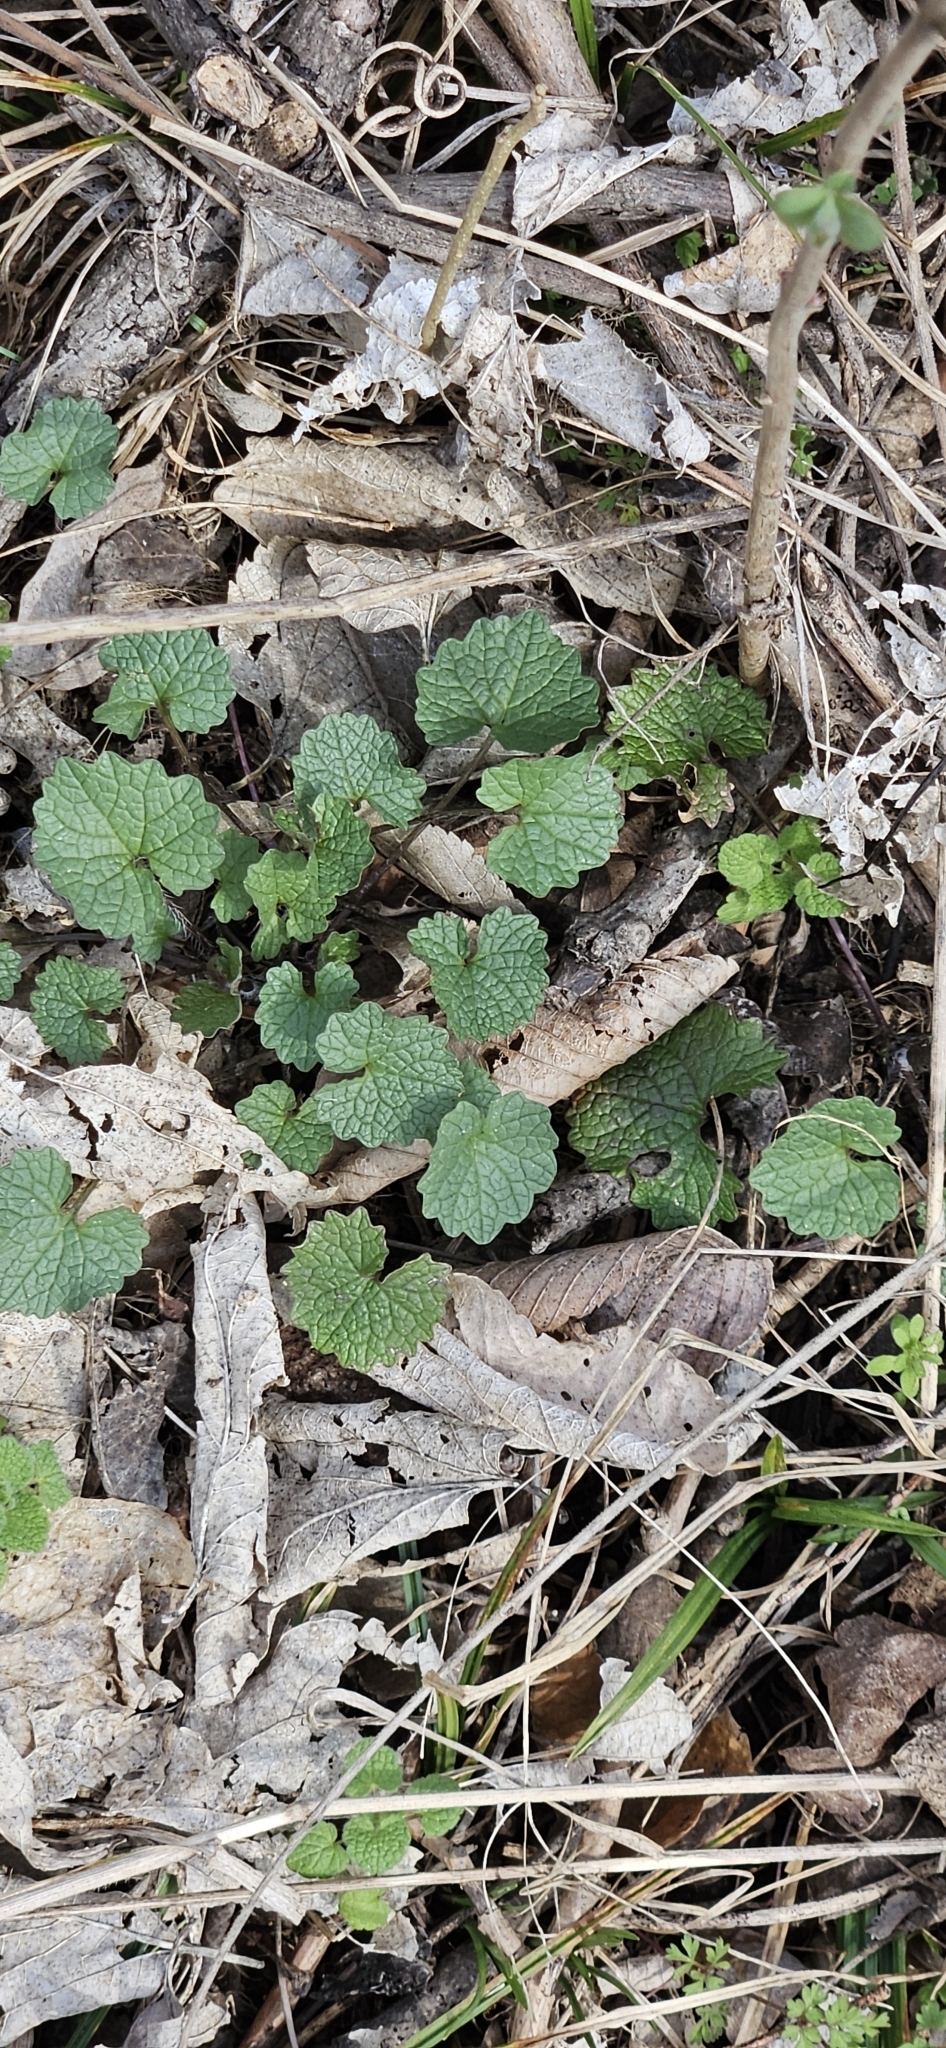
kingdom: Plantae
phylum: Tracheophyta
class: Magnoliopsida
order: Brassicales
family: Brassicaceae
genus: Alliaria
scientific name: Alliaria petiolata
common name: Garlic mustard
